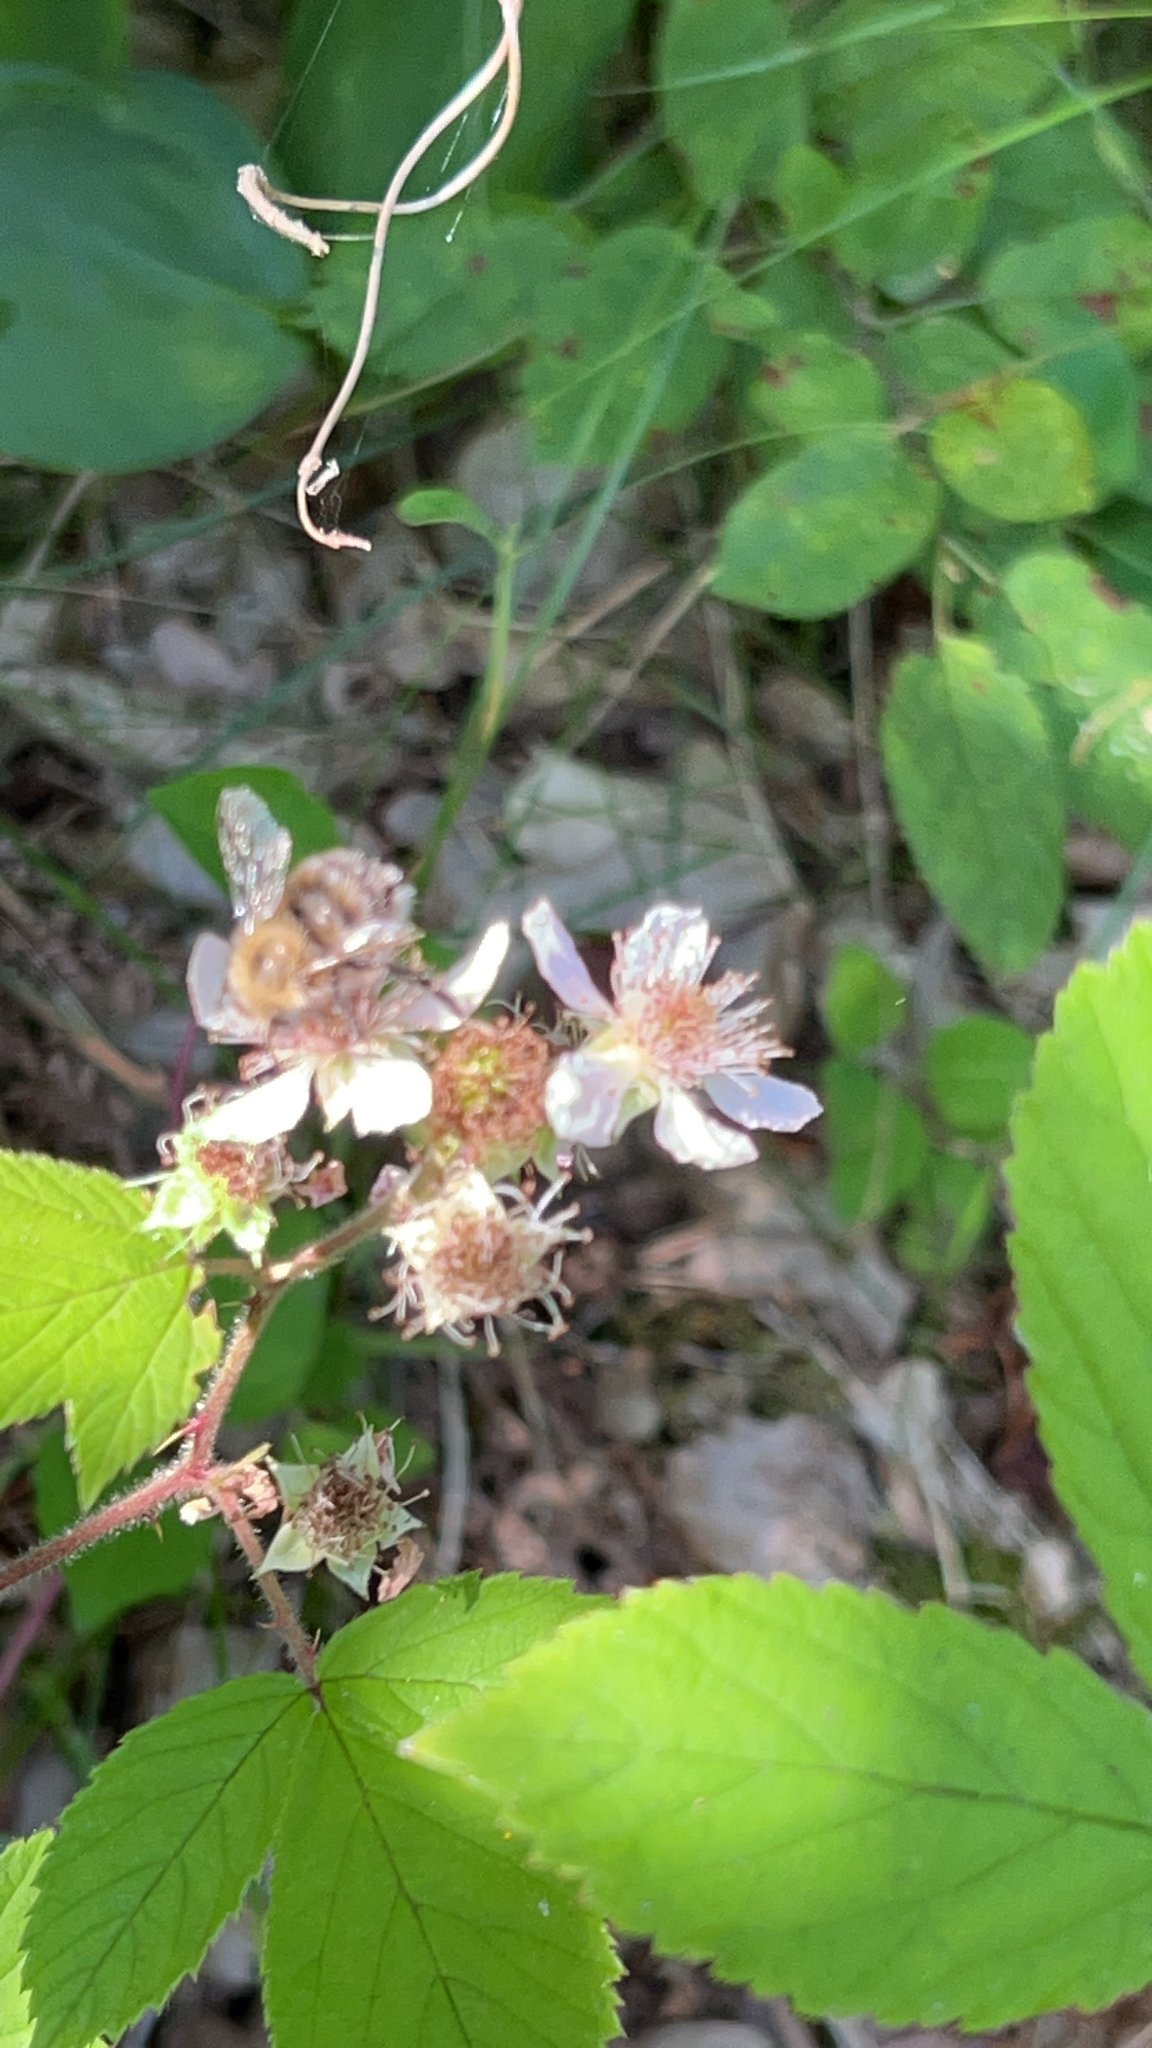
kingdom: Animalia
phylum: Arthropoda
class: Insecta
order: Hymenoptera
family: Apidae
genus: Bombus
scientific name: Bombus pascuorum
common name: Common carder bee
